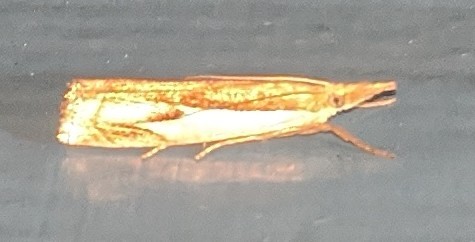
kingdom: Animalia
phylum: Arthropoda
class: Insecta
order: Lepidoptera
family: Crambidae
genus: Crambus
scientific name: Crambus agitatellus
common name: Double-banded grass-veneer
